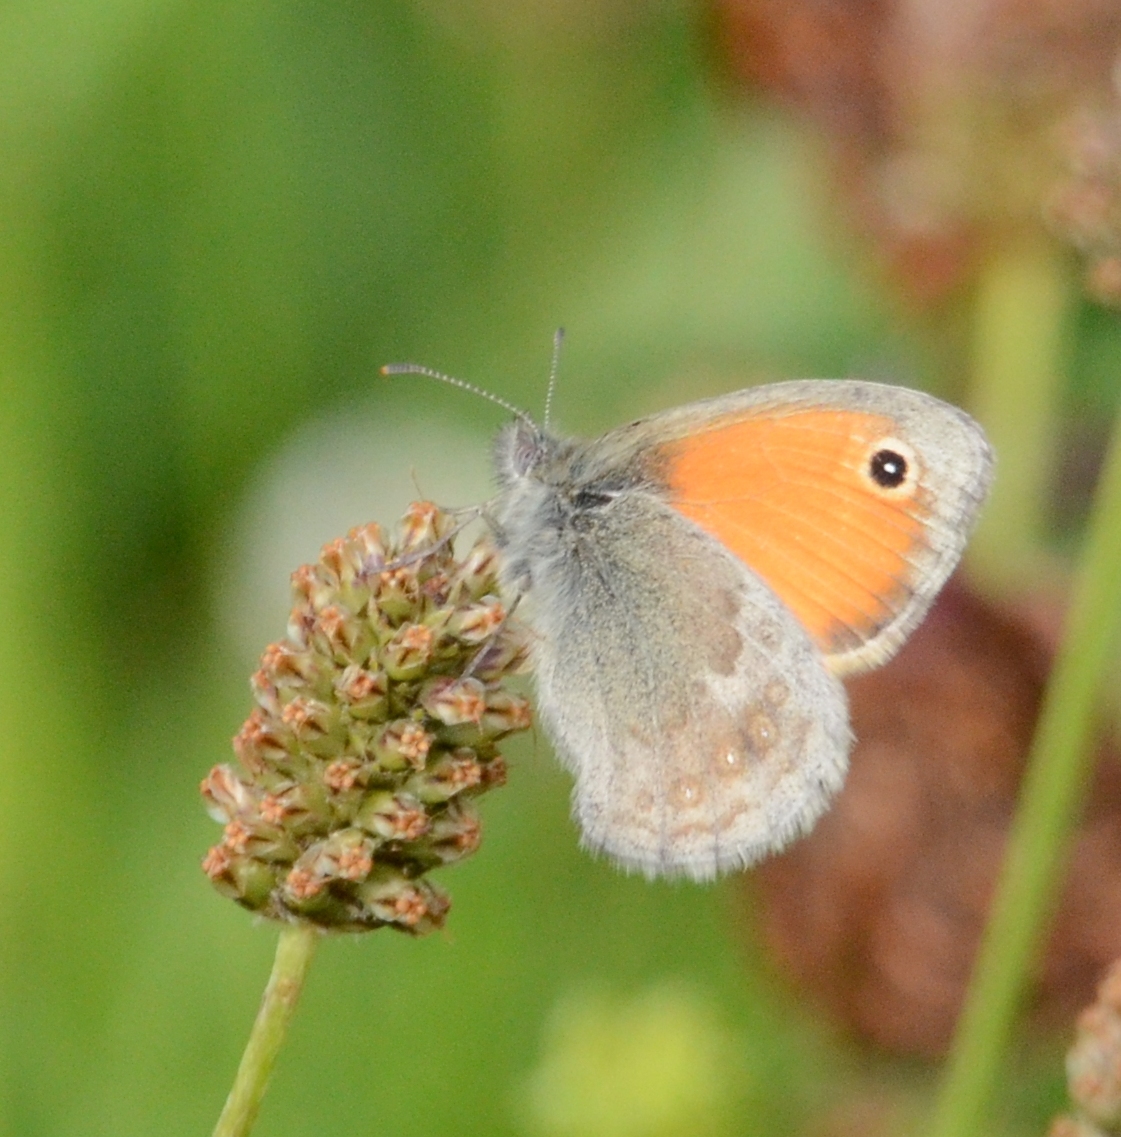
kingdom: Animalia
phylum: Arthropoda
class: Insecta
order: Lepidoptera
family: Nymphalidae
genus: Coenonympha
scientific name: Coenonympha pamphilus
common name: Small heath
